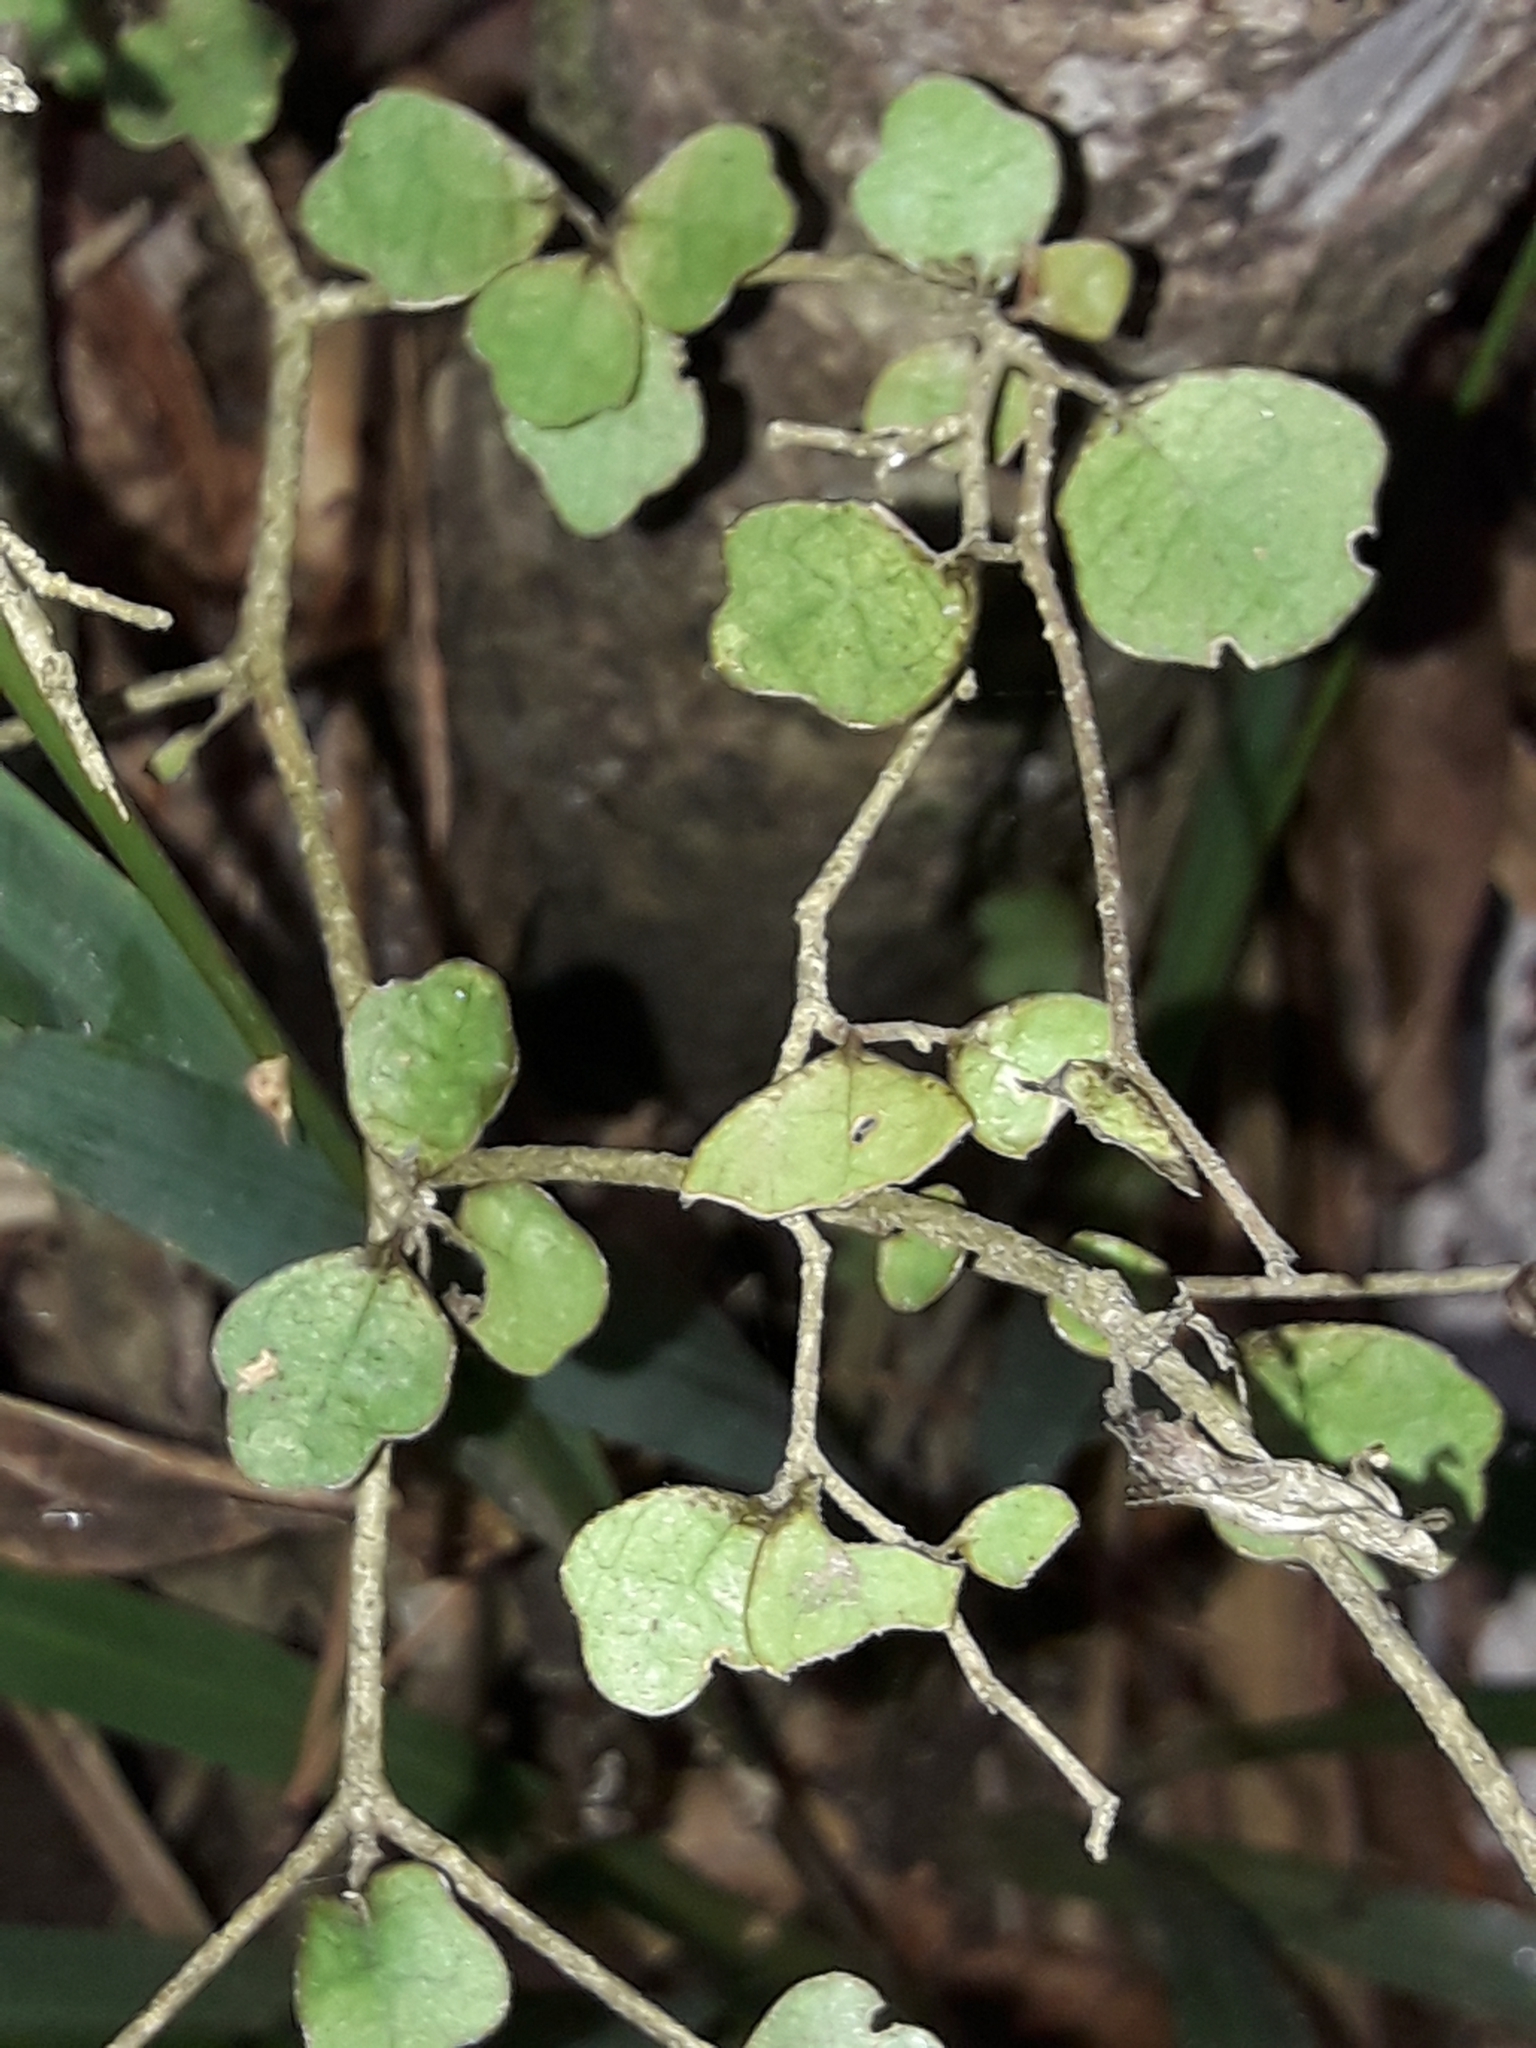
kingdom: Plantae
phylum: Tracheophyta
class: Magnoliopsida
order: Apiales
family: Pennantiaceae
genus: Pennantia
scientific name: Pennantia corymbosa
